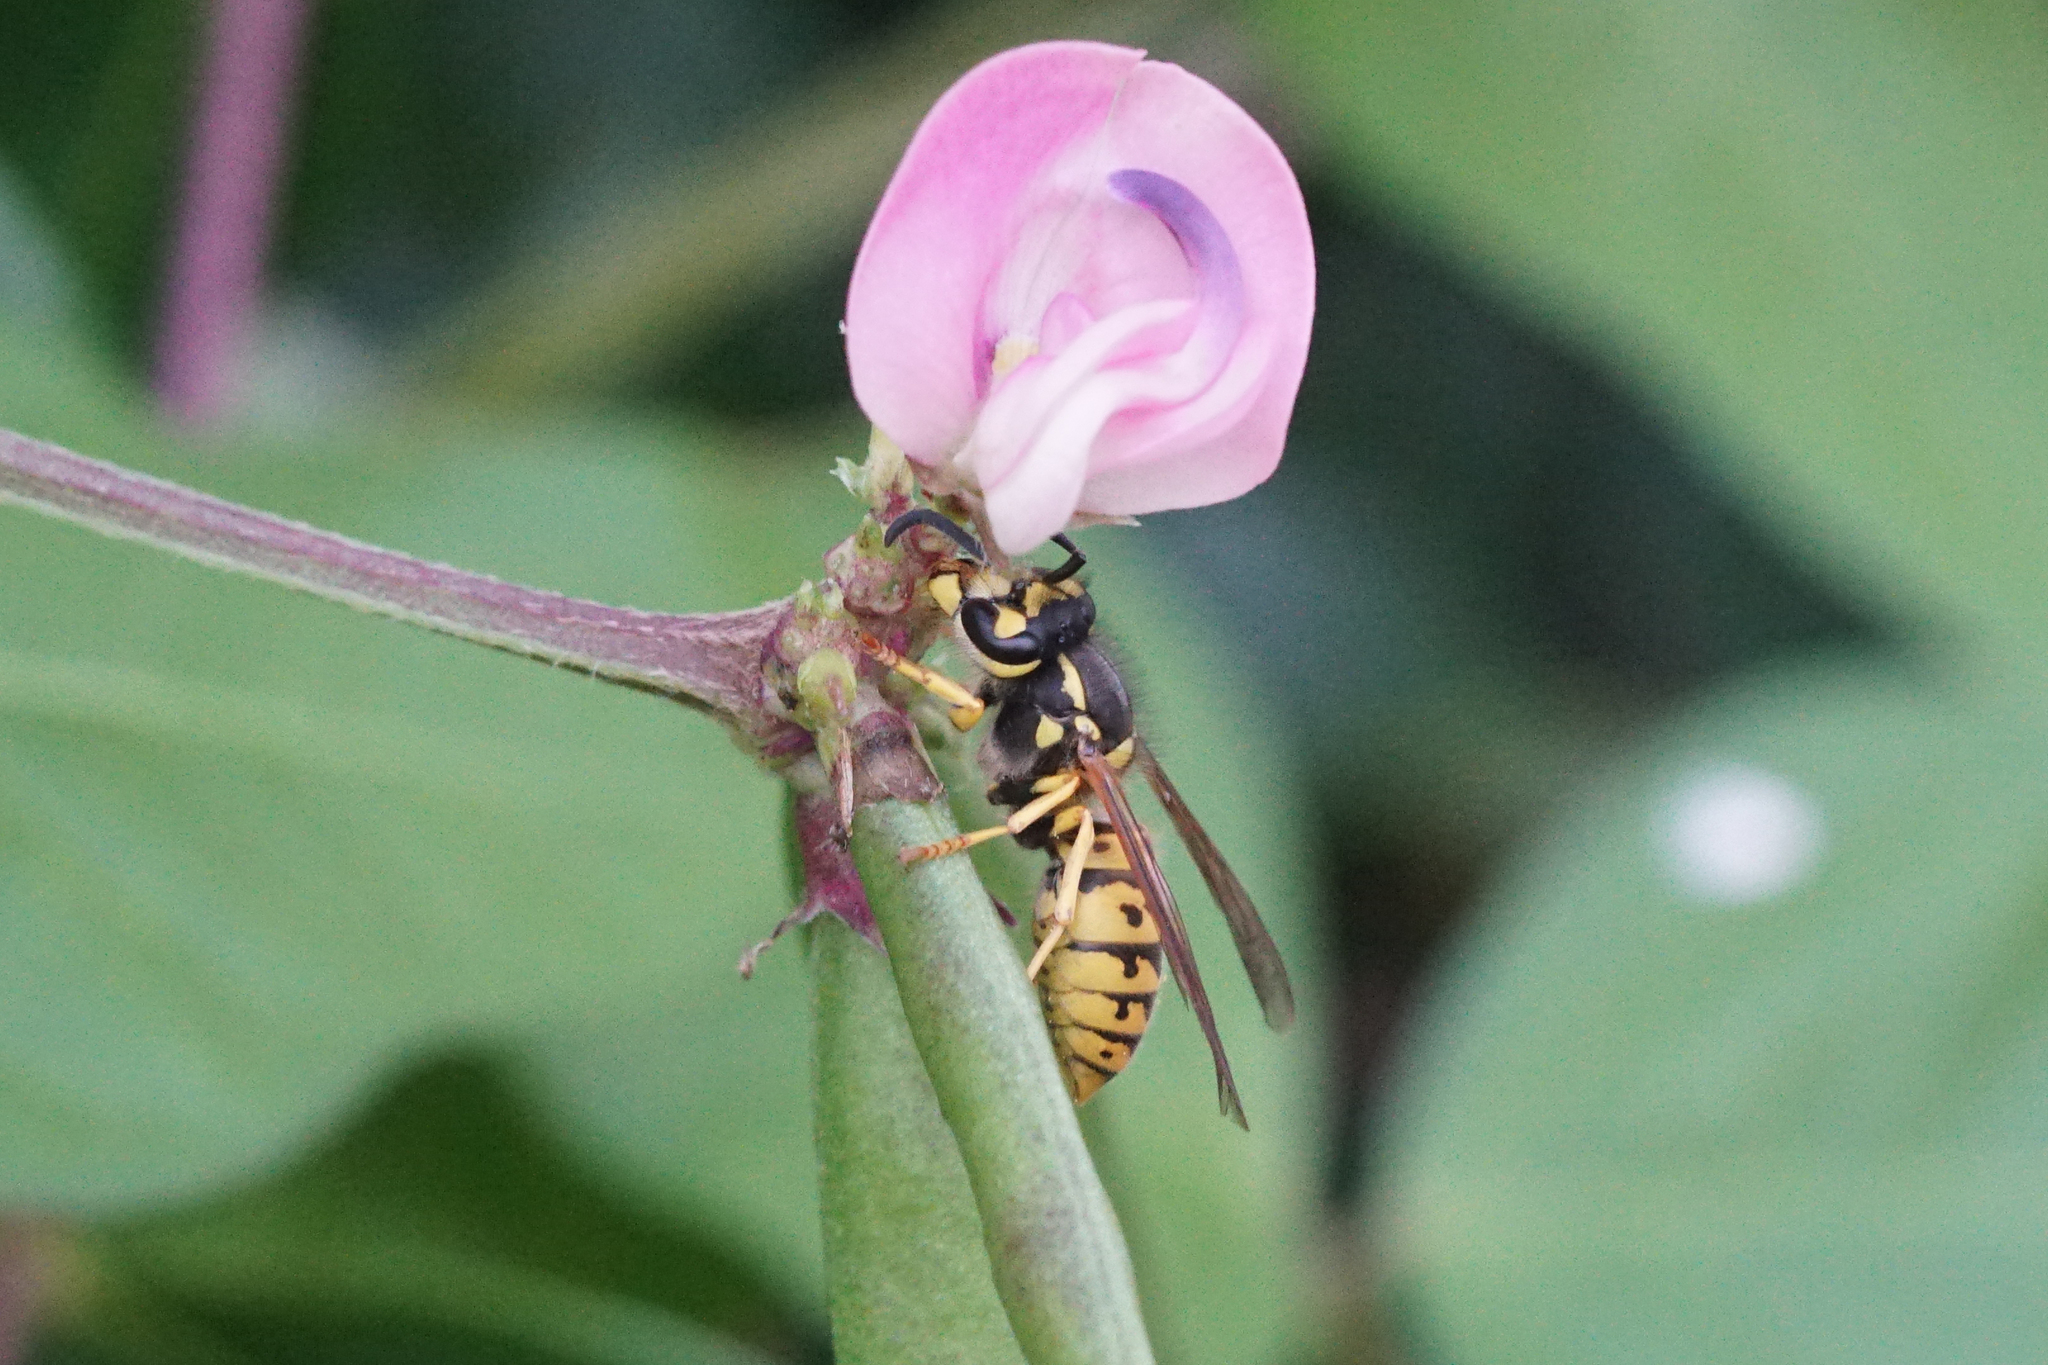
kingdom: Animalia
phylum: Arthropoda
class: Insecta
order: Hymenoptera
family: Vespidae
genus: Vespula
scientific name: Vespula germanica
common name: German wasp
